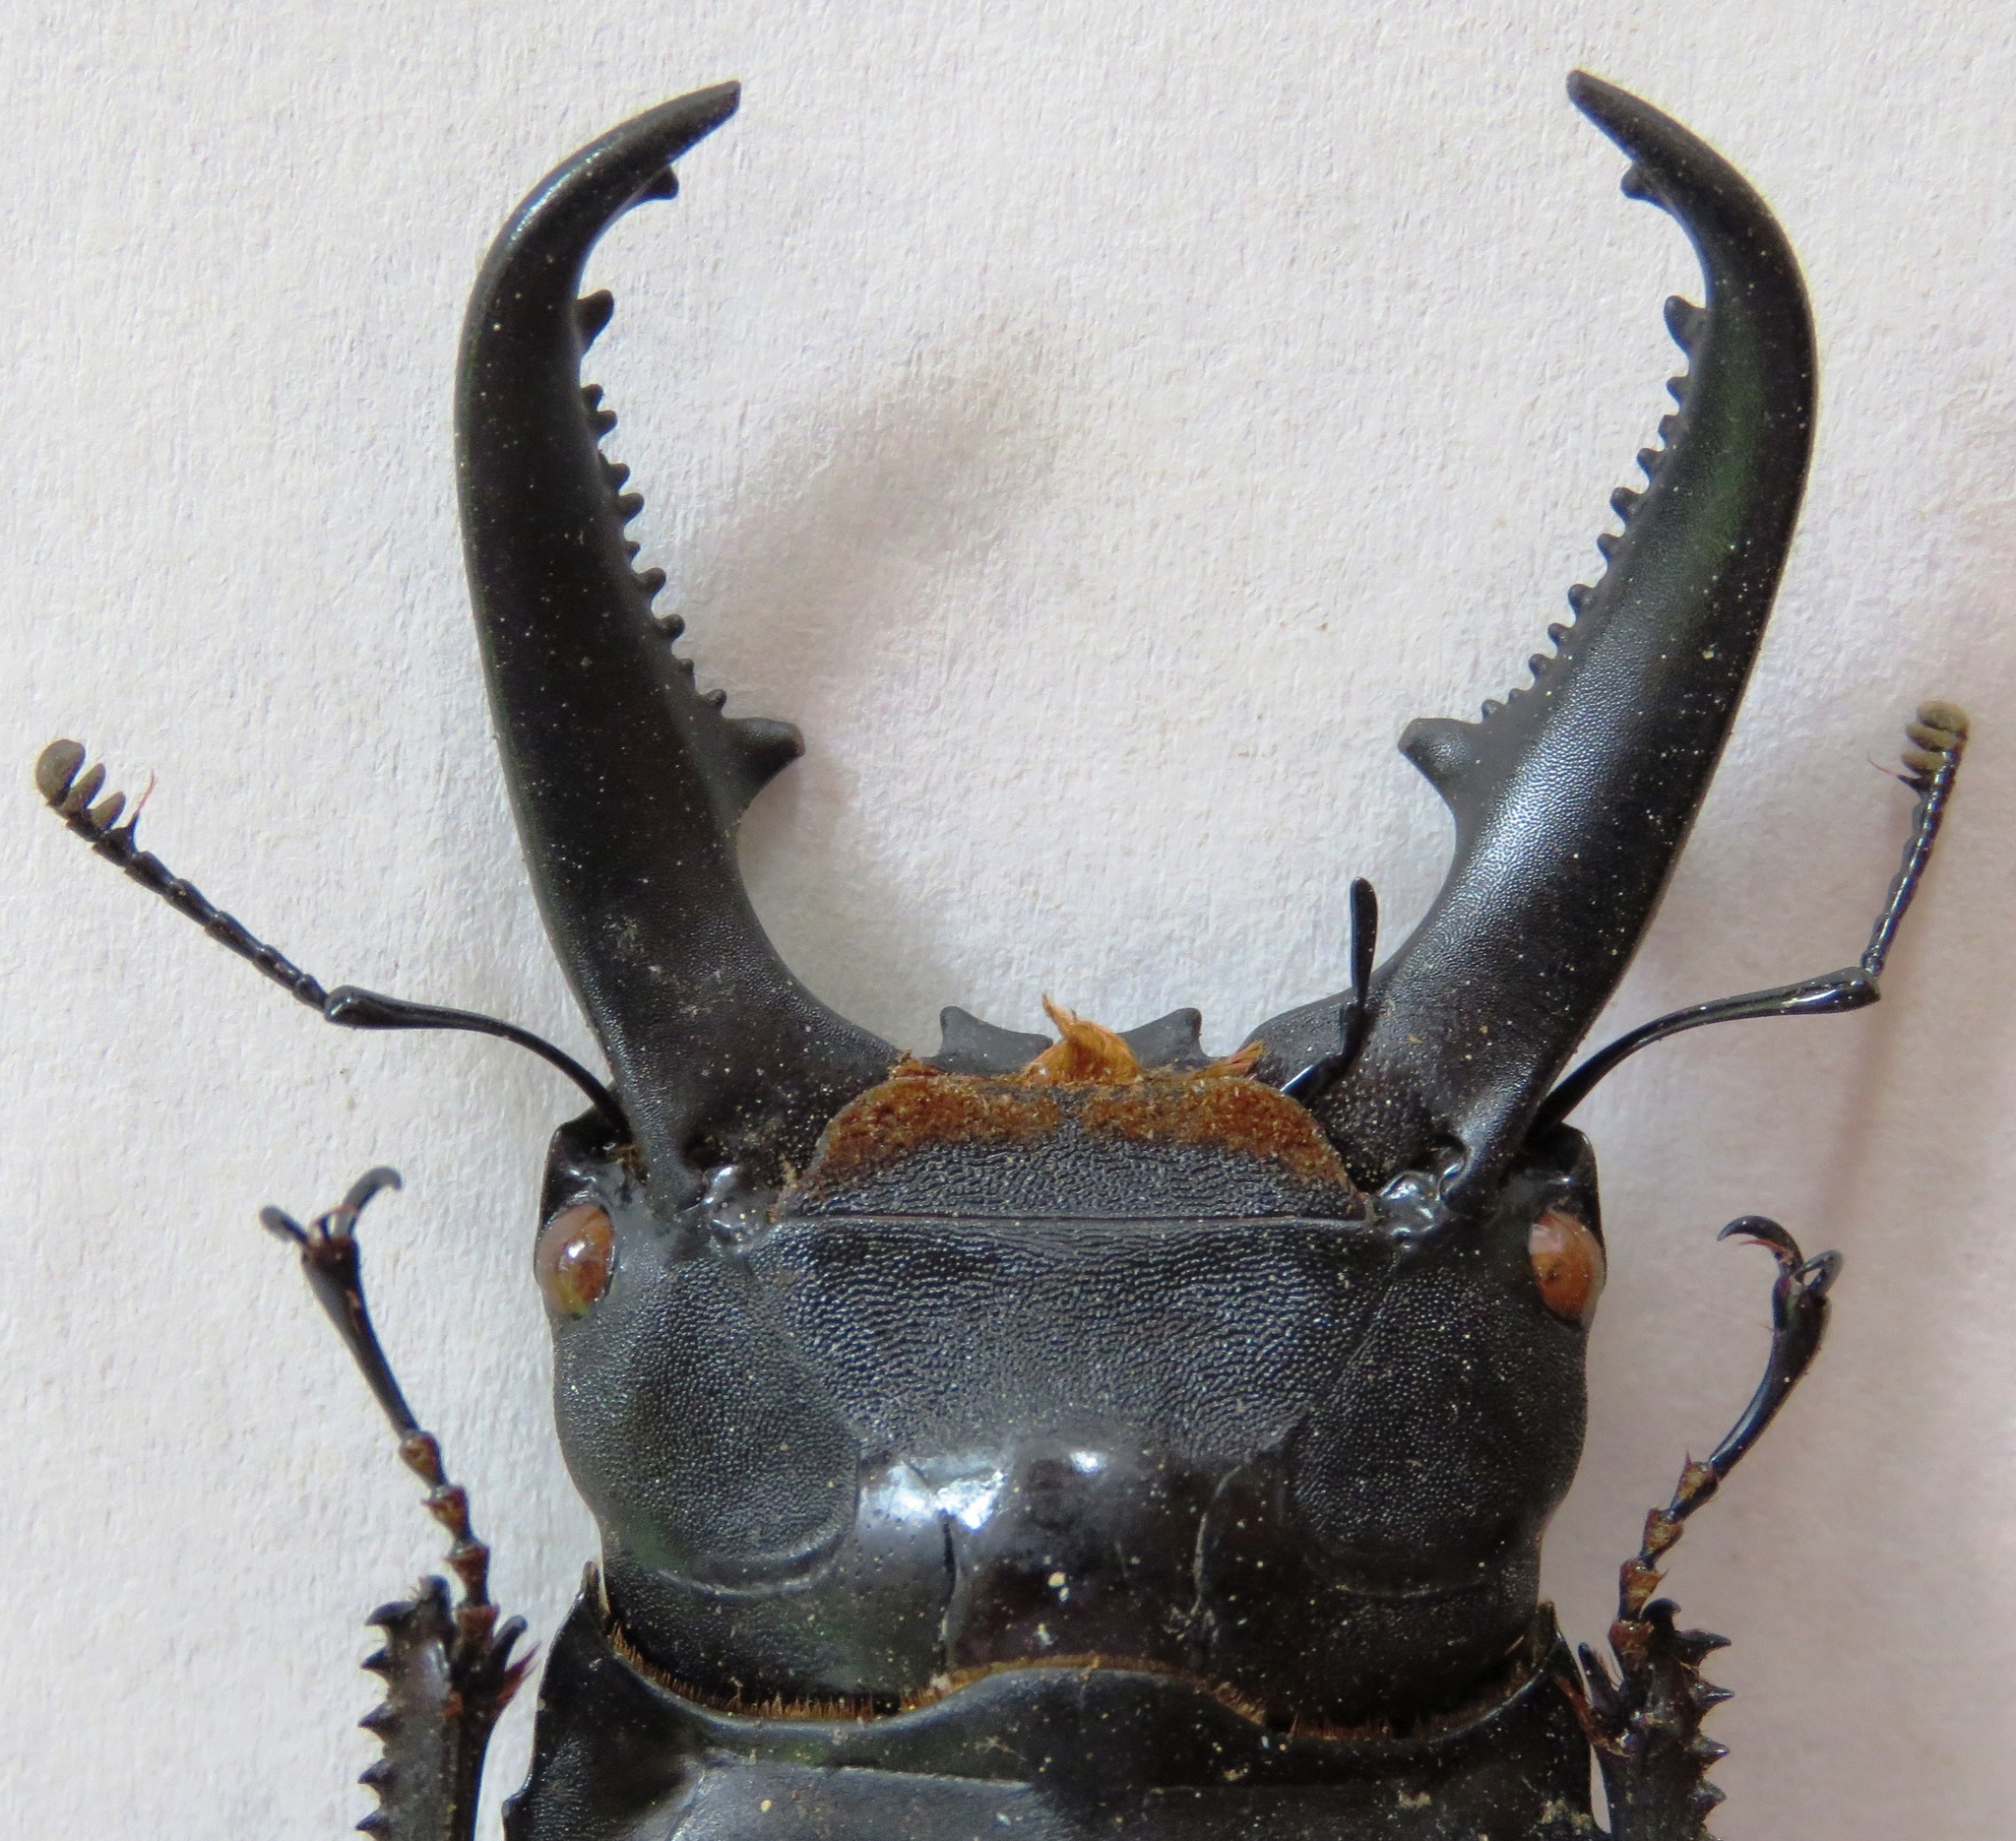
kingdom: Animalia
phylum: Arthropoda
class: Insecta
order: Coleoptera
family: Lucanidae
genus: Serrognathus
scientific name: Serrognathus titanus
